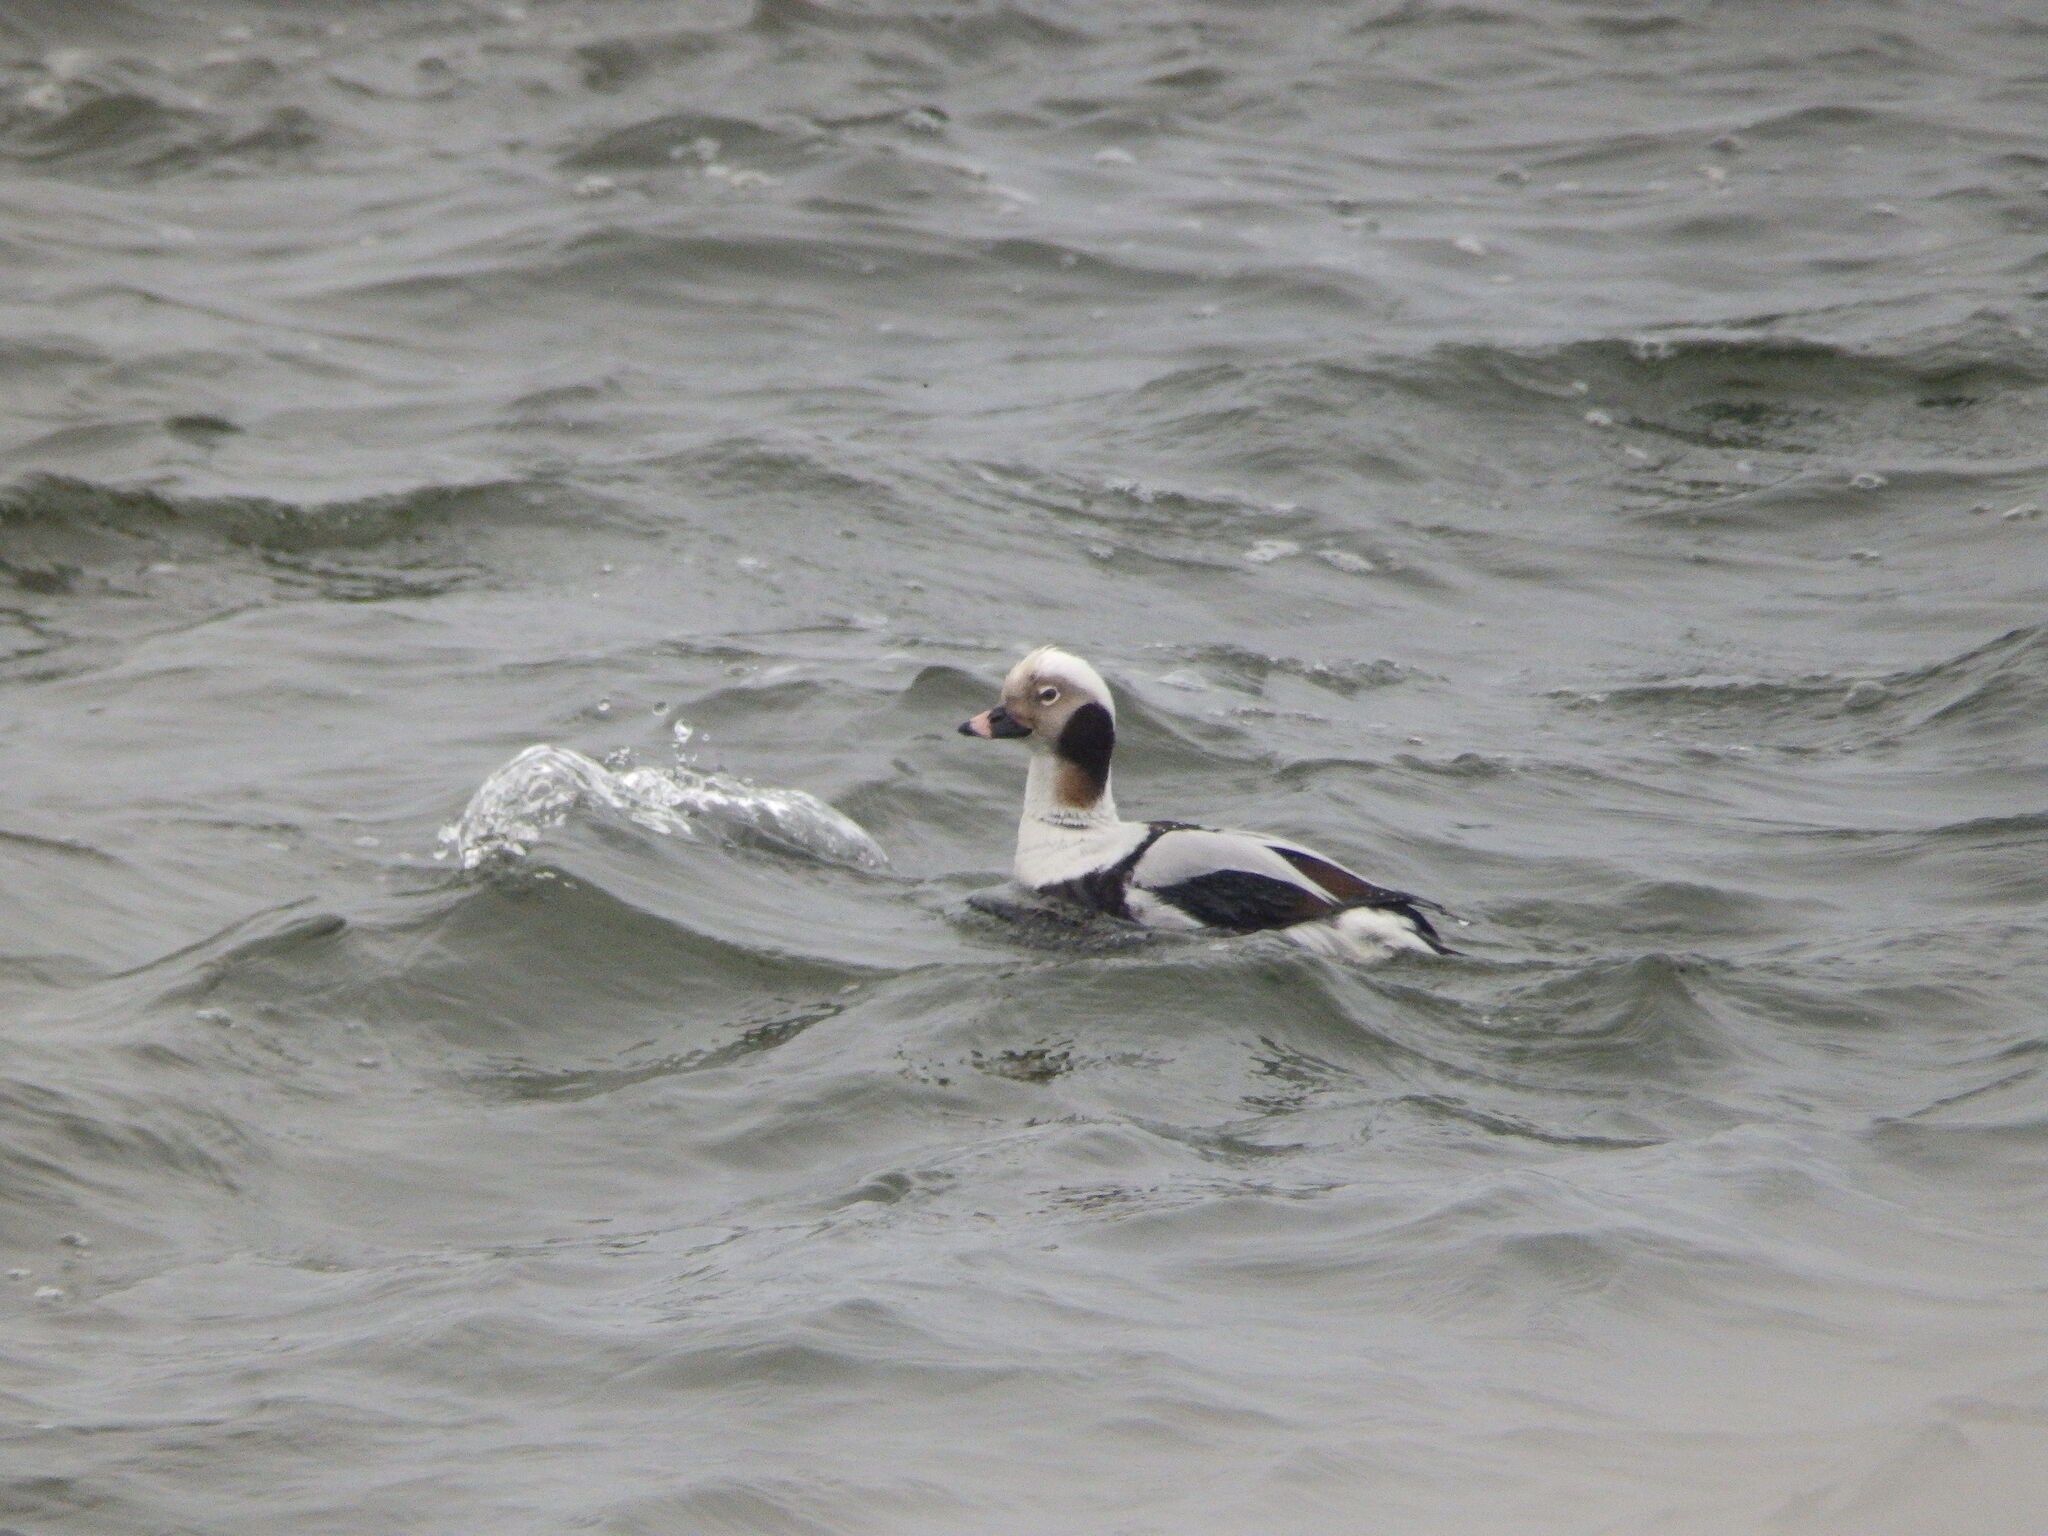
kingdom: Animalia
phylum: Chordata
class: Aves
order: Anseriformes
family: Anatidae
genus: Clangula
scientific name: Clangula hyemalis
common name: Long-tailed duck
